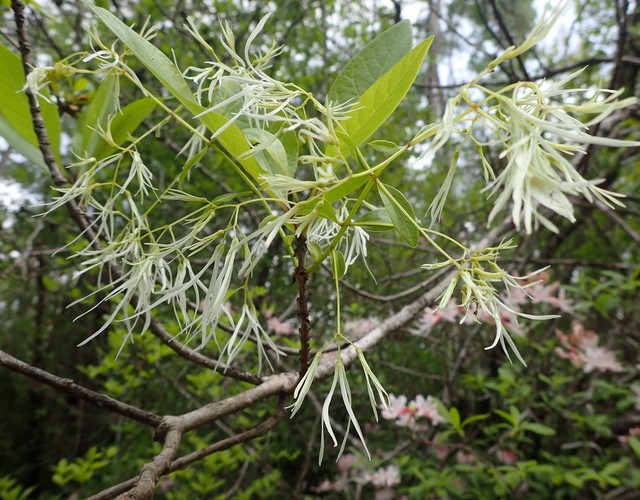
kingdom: Plantae
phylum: Tracheophyta
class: Magnoliopsida
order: Lamiales
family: Oleaceae
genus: Chionanthus
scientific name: Chionanthus virginicus
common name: American fringetree
